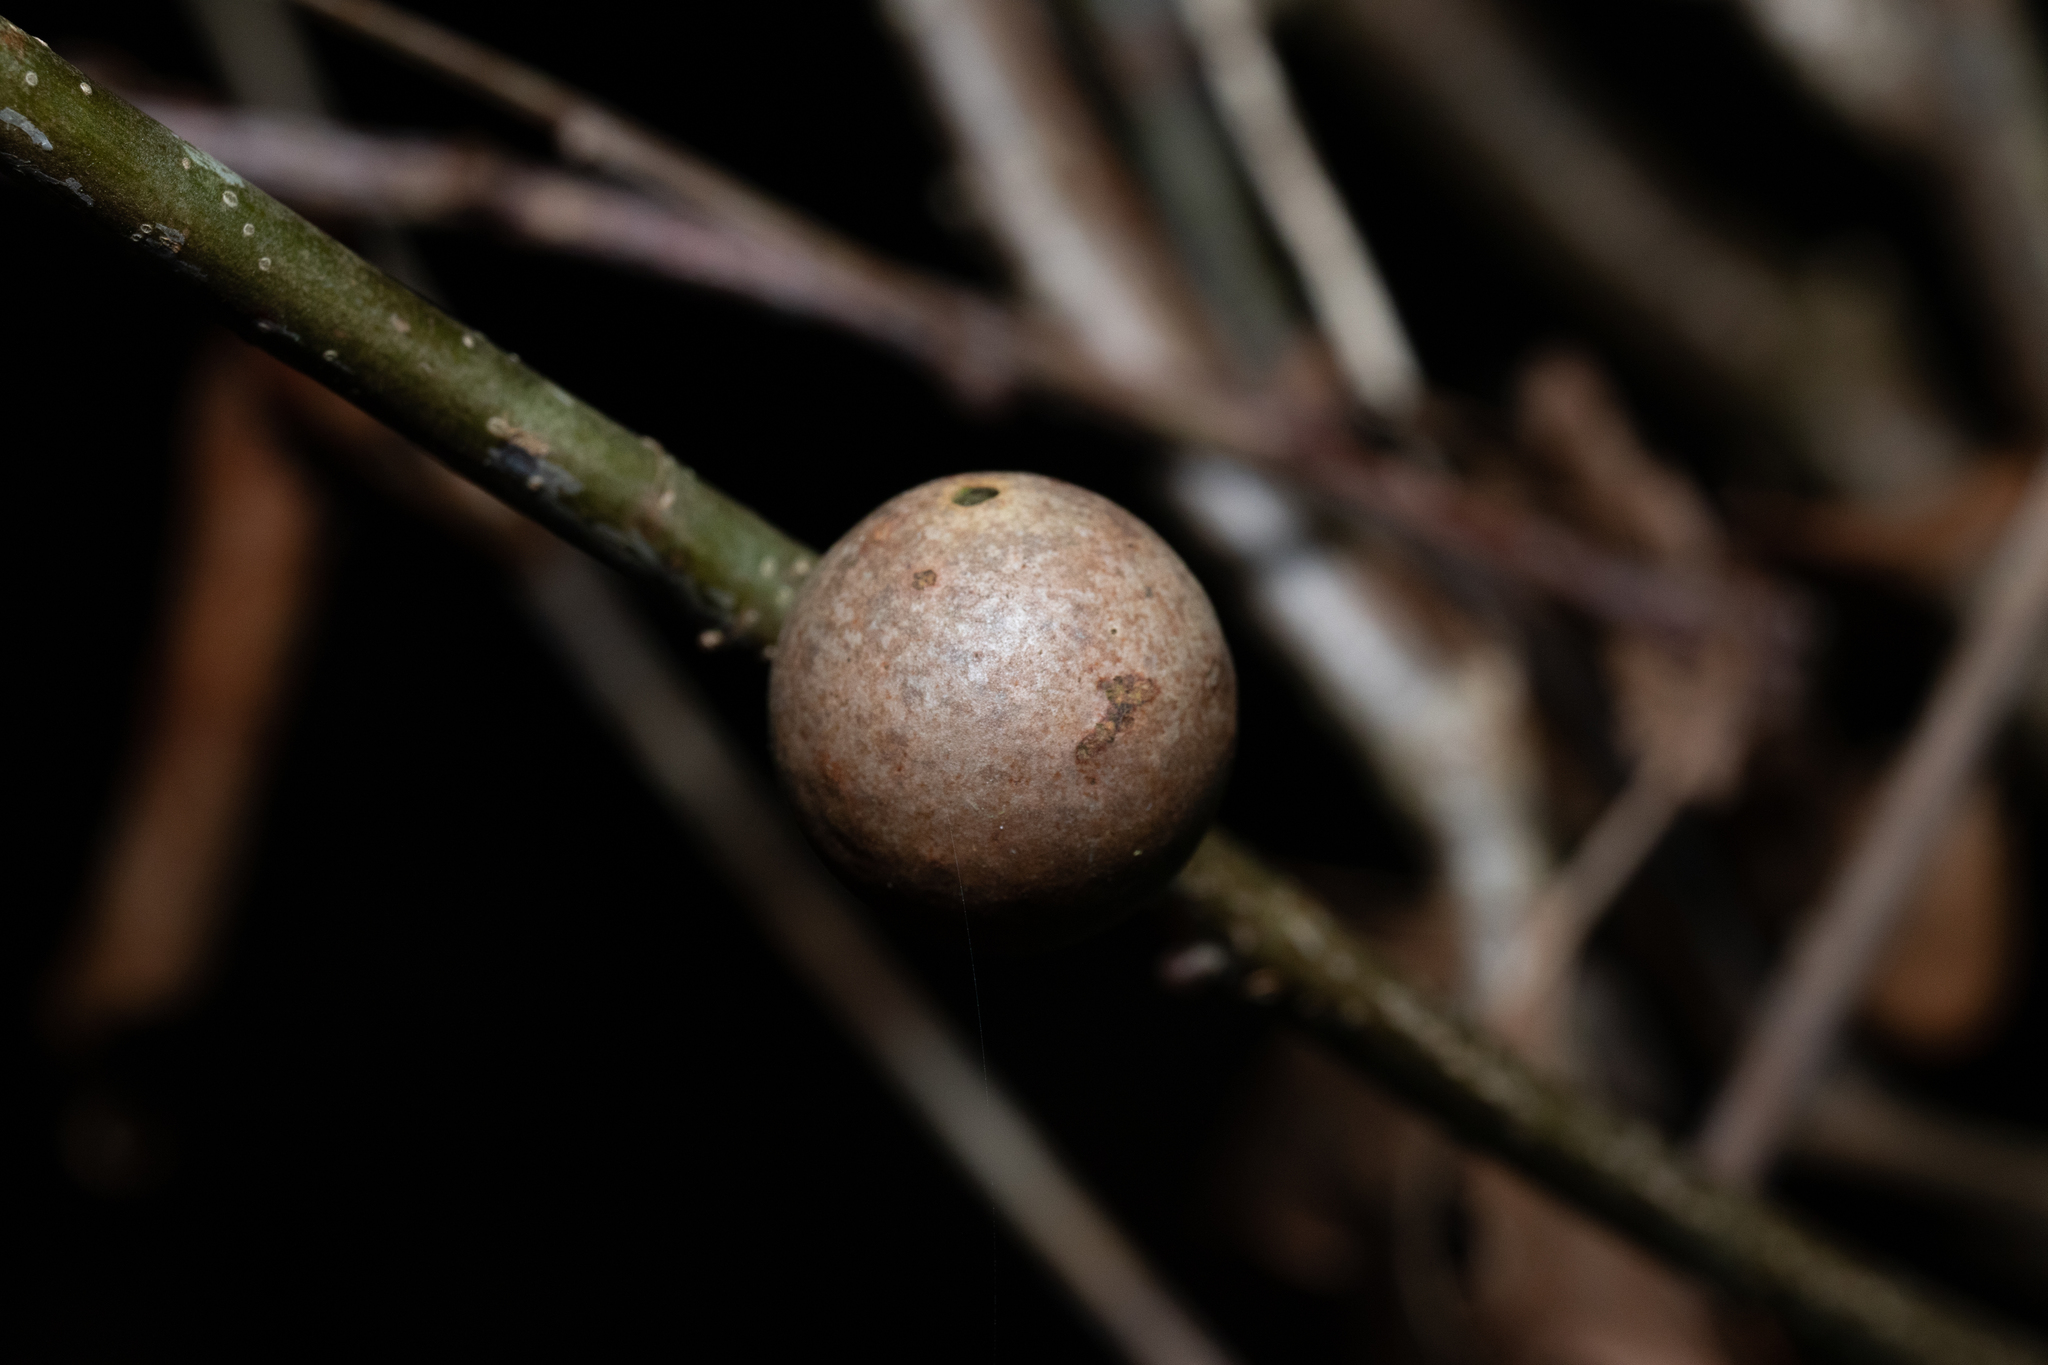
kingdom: Animalia
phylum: Arthropoda
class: Insecta
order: Hymenoptera
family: Cynipidae
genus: Andricus
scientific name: Andricus kollari
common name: Marble gall
